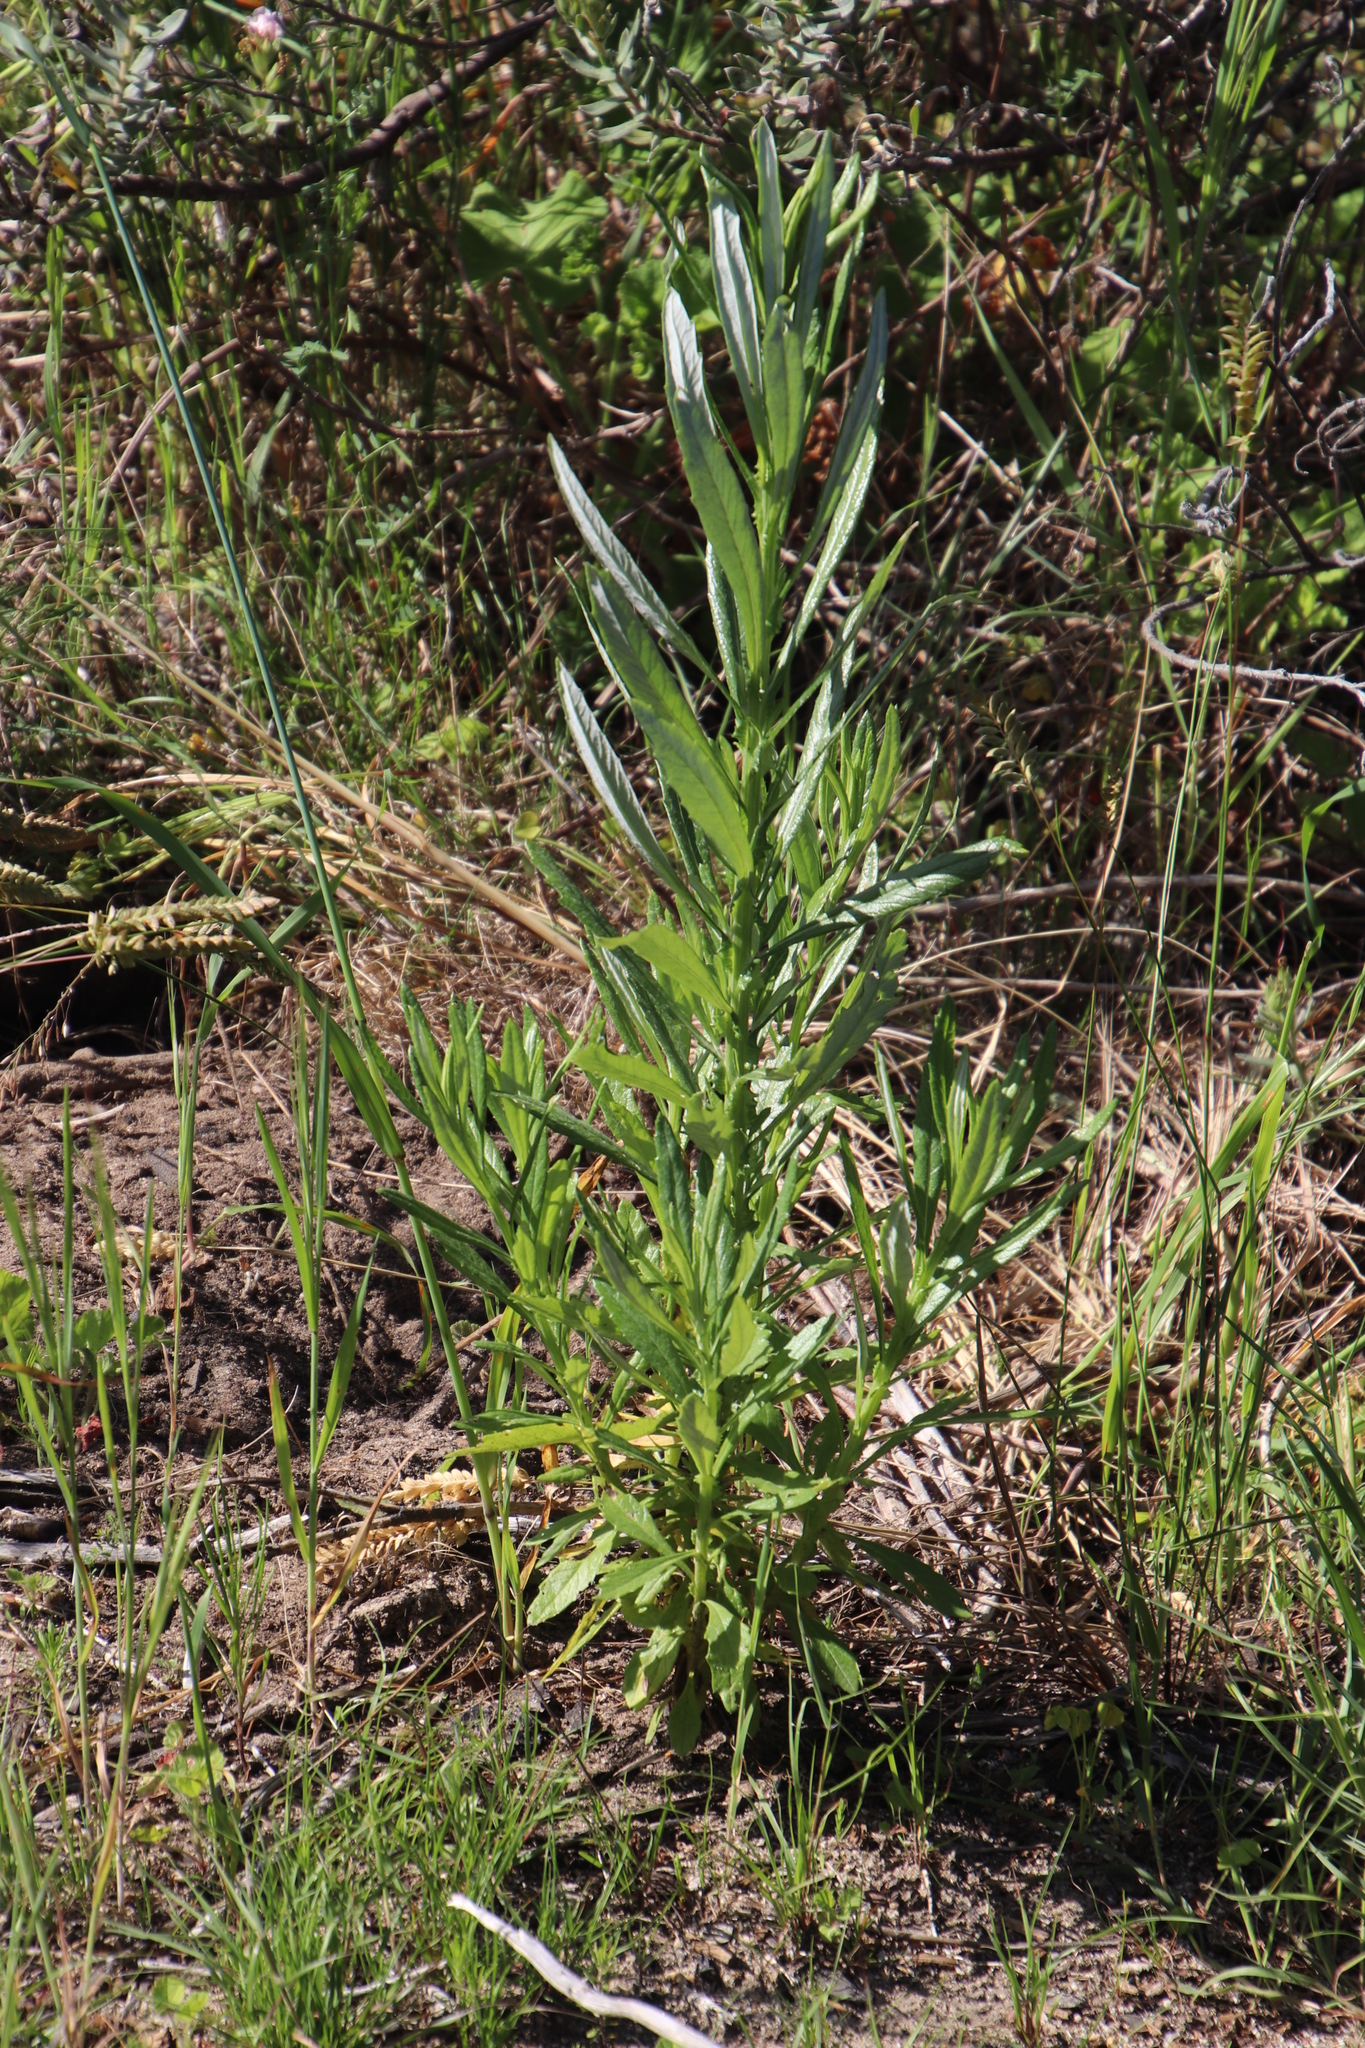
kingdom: Plantae
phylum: Tracheophyta
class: Magnoliopsida
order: Asterales
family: Asteraceae
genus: Senecio
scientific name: Senecio pterophorus
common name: Shoddy ragwort
